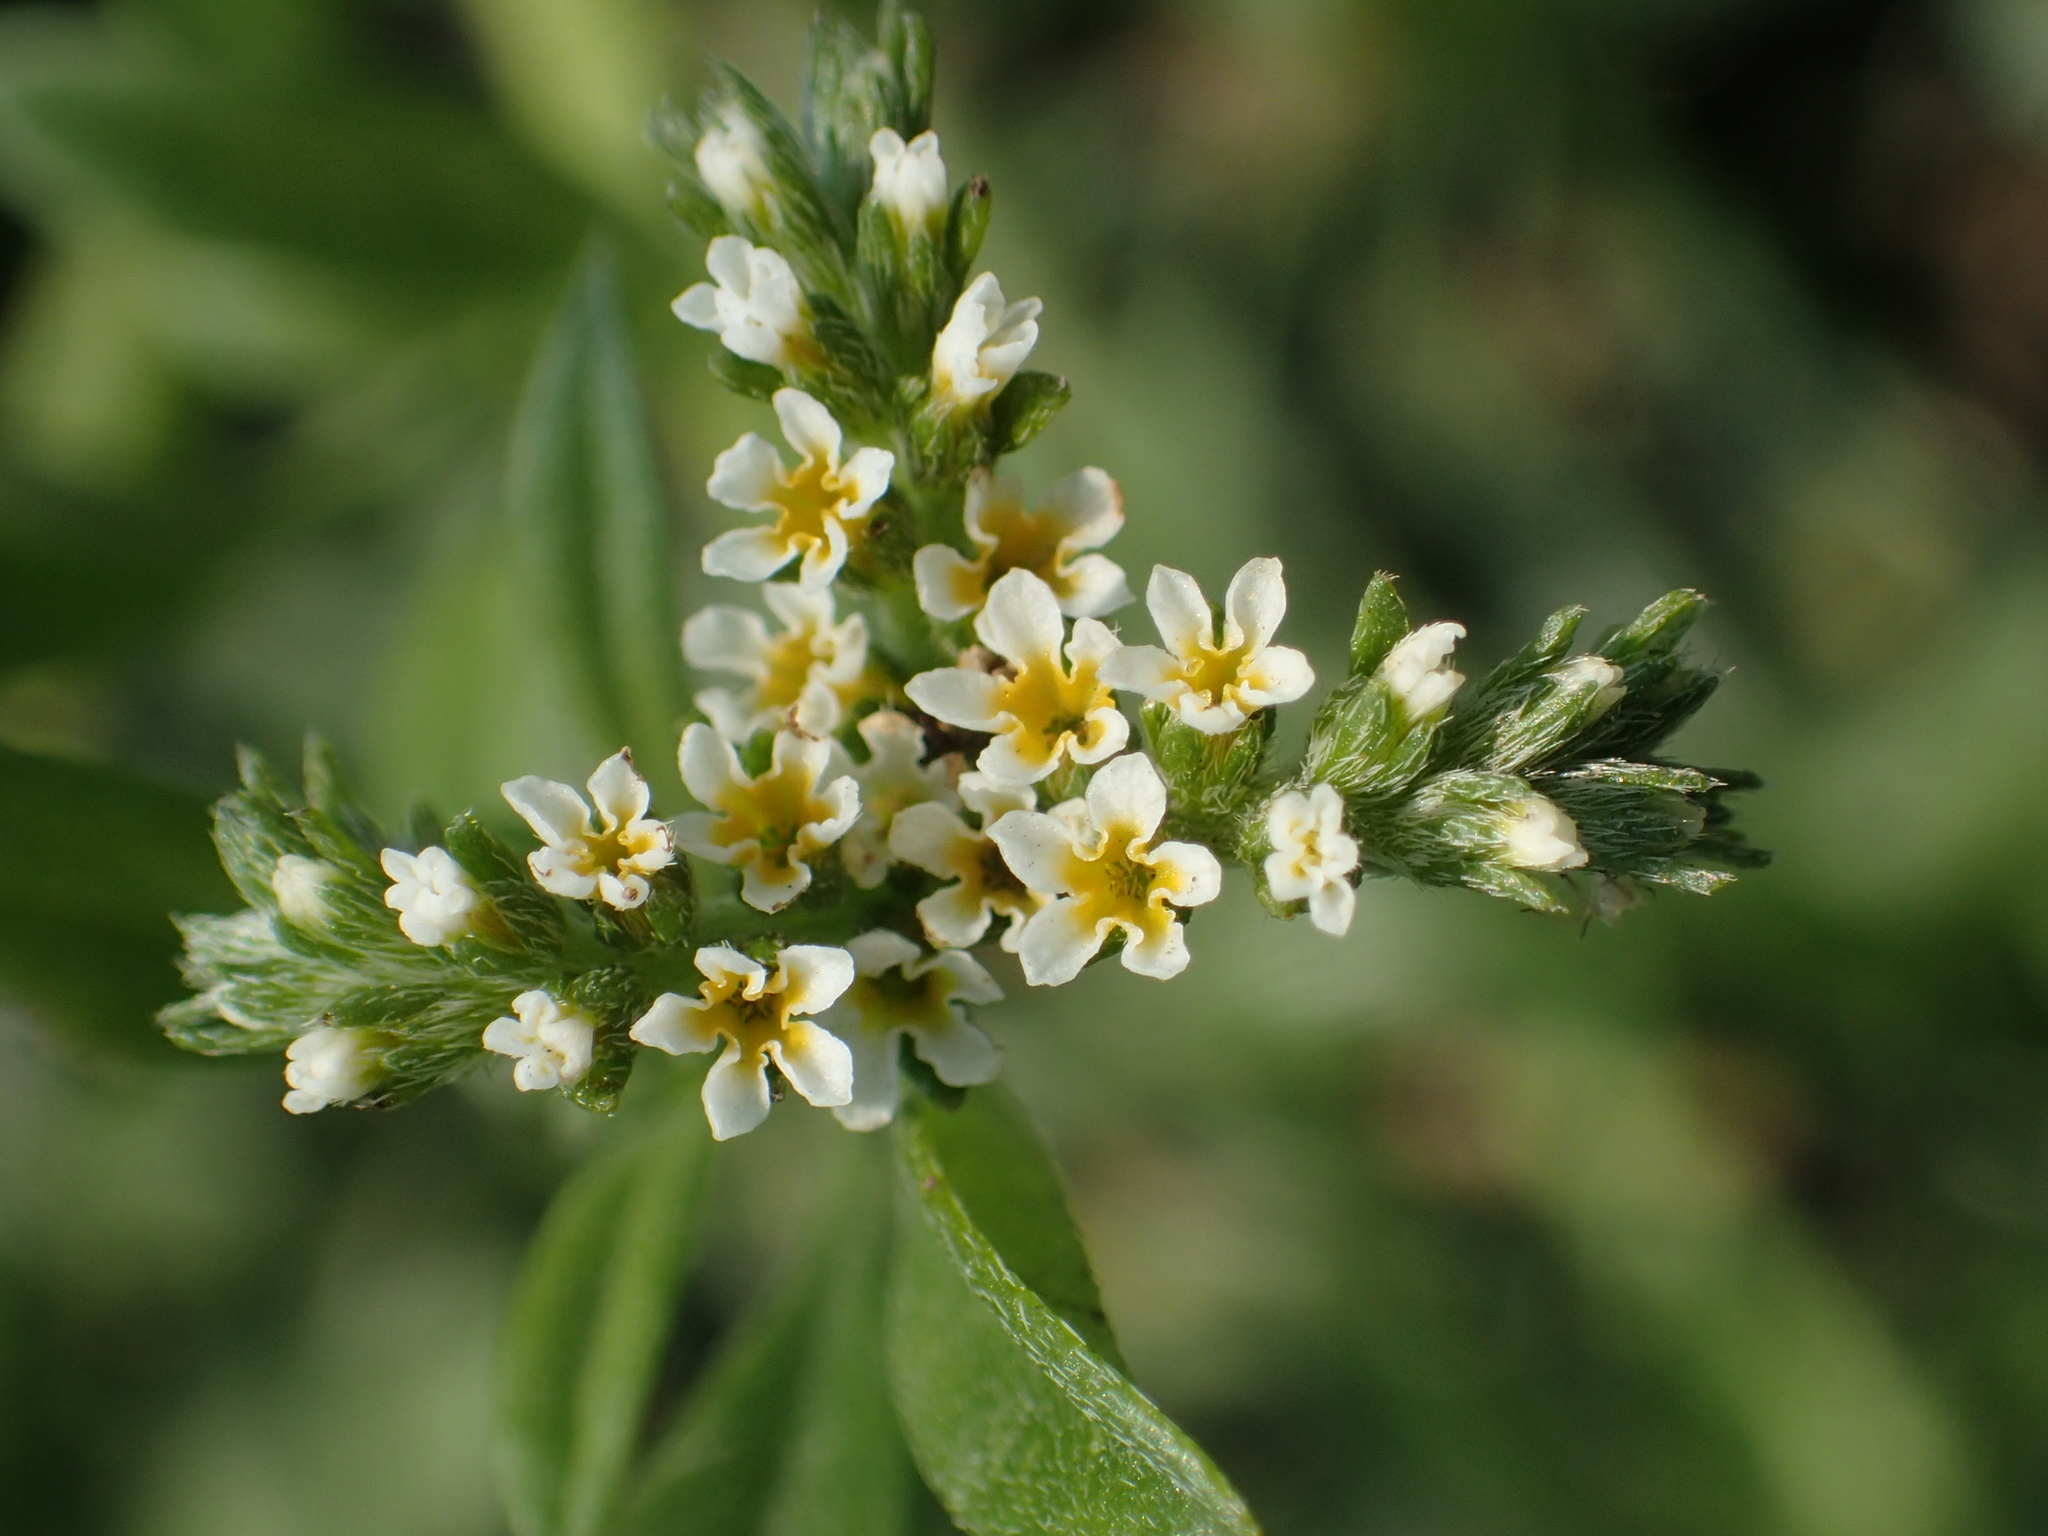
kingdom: Plantae
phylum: Tracheophyta
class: Magnoliopsida
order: Boraginales
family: Heliotropiaceae
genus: Euploca
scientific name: Euploca procumbens
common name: Fourspike heliotrope
